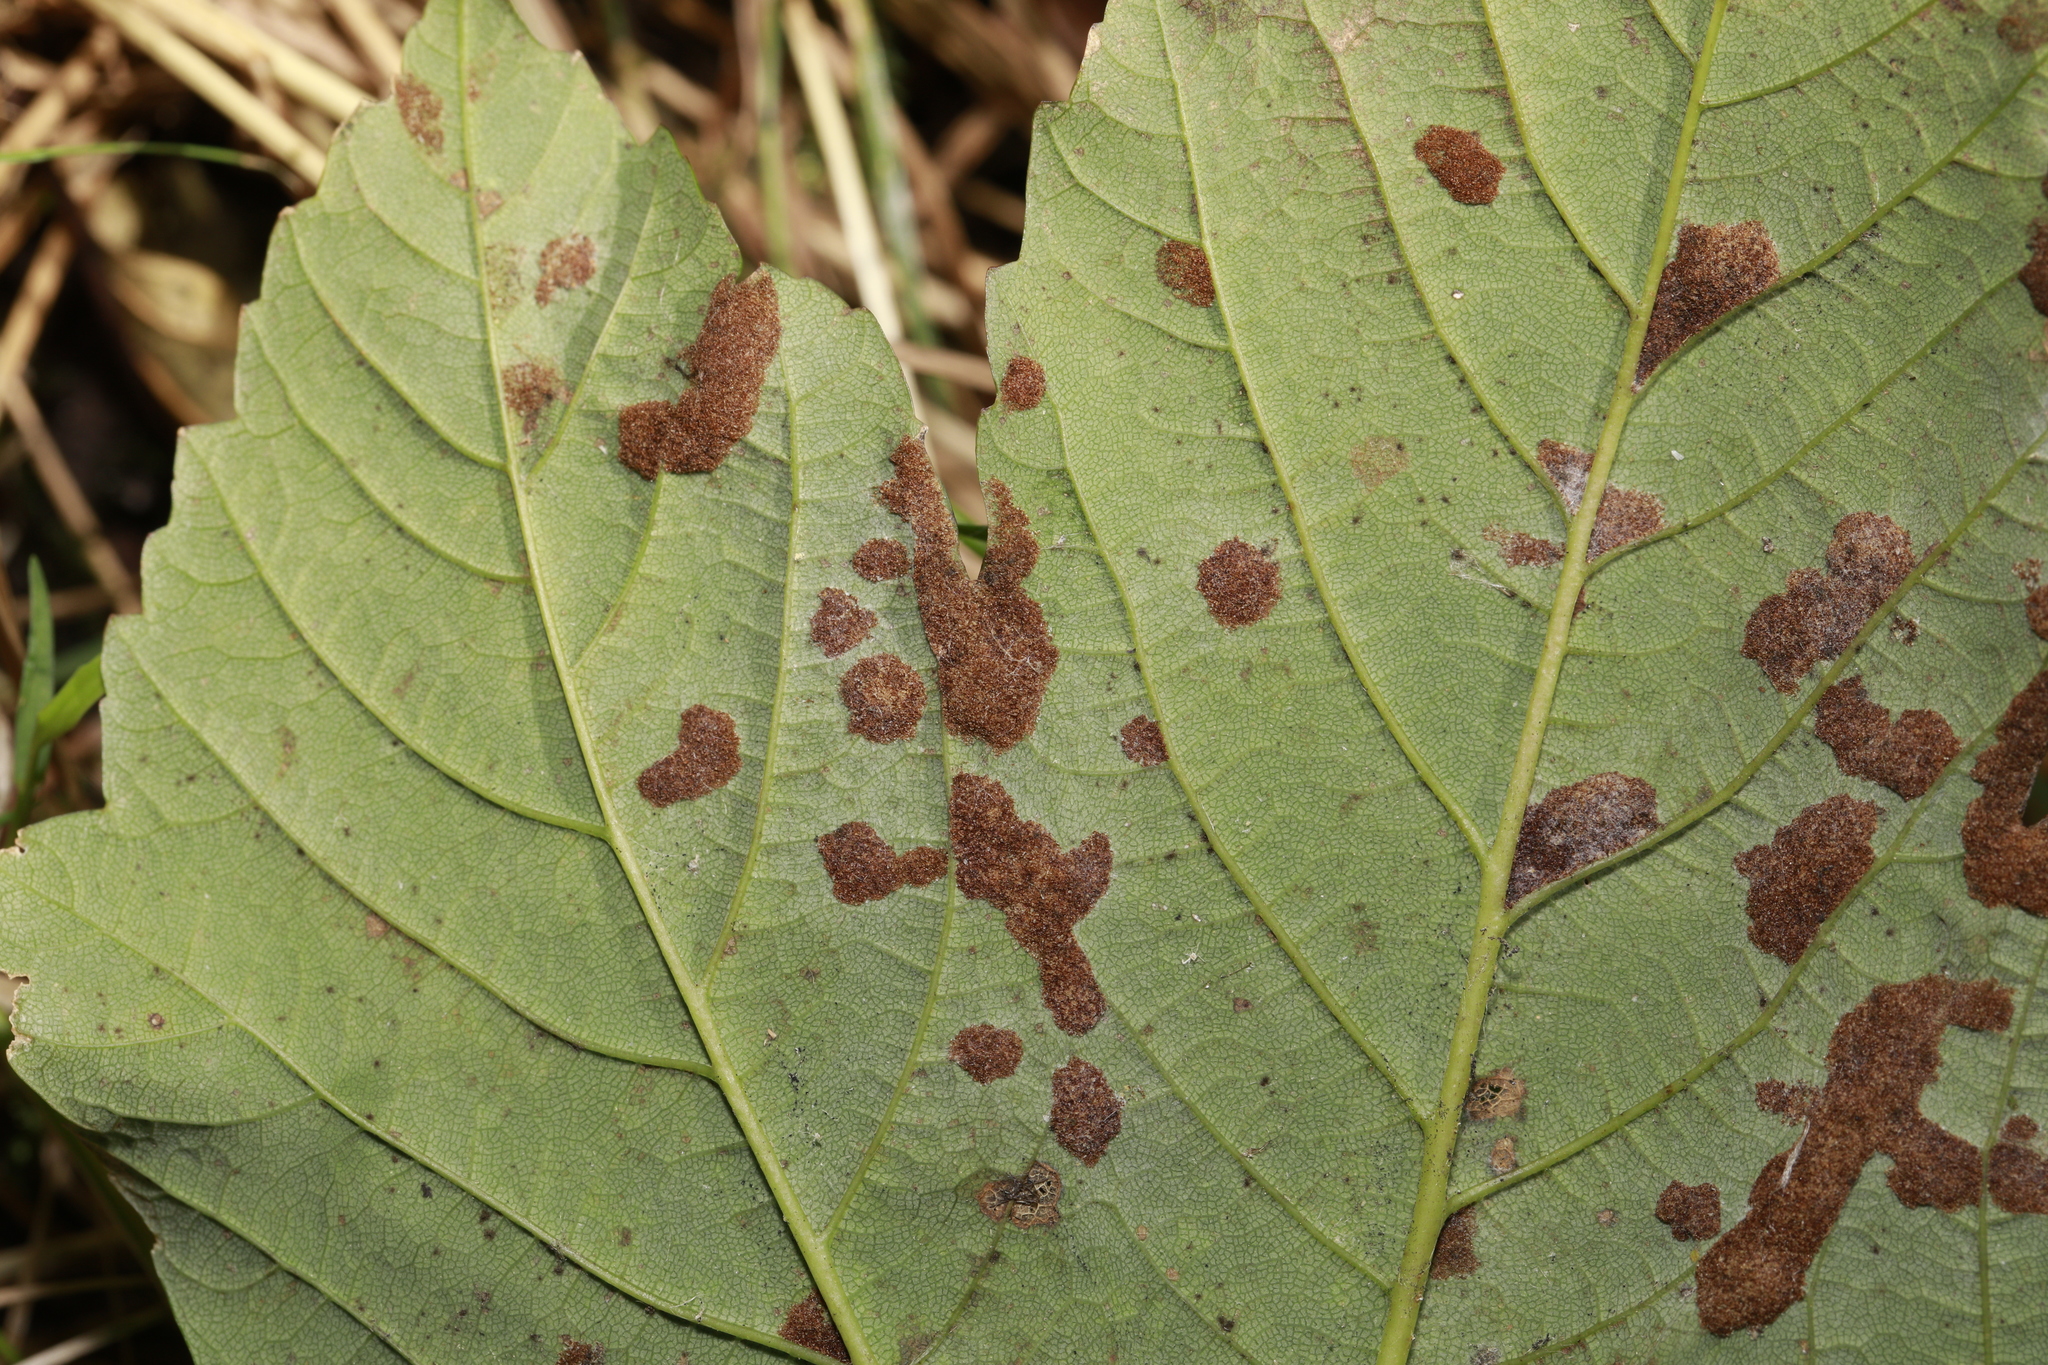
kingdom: Animalia
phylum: Arthropoda
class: Arachnida
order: Trombidiformes
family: Eriophyidae
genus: Aceria
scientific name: Aceria pseudoplatani
